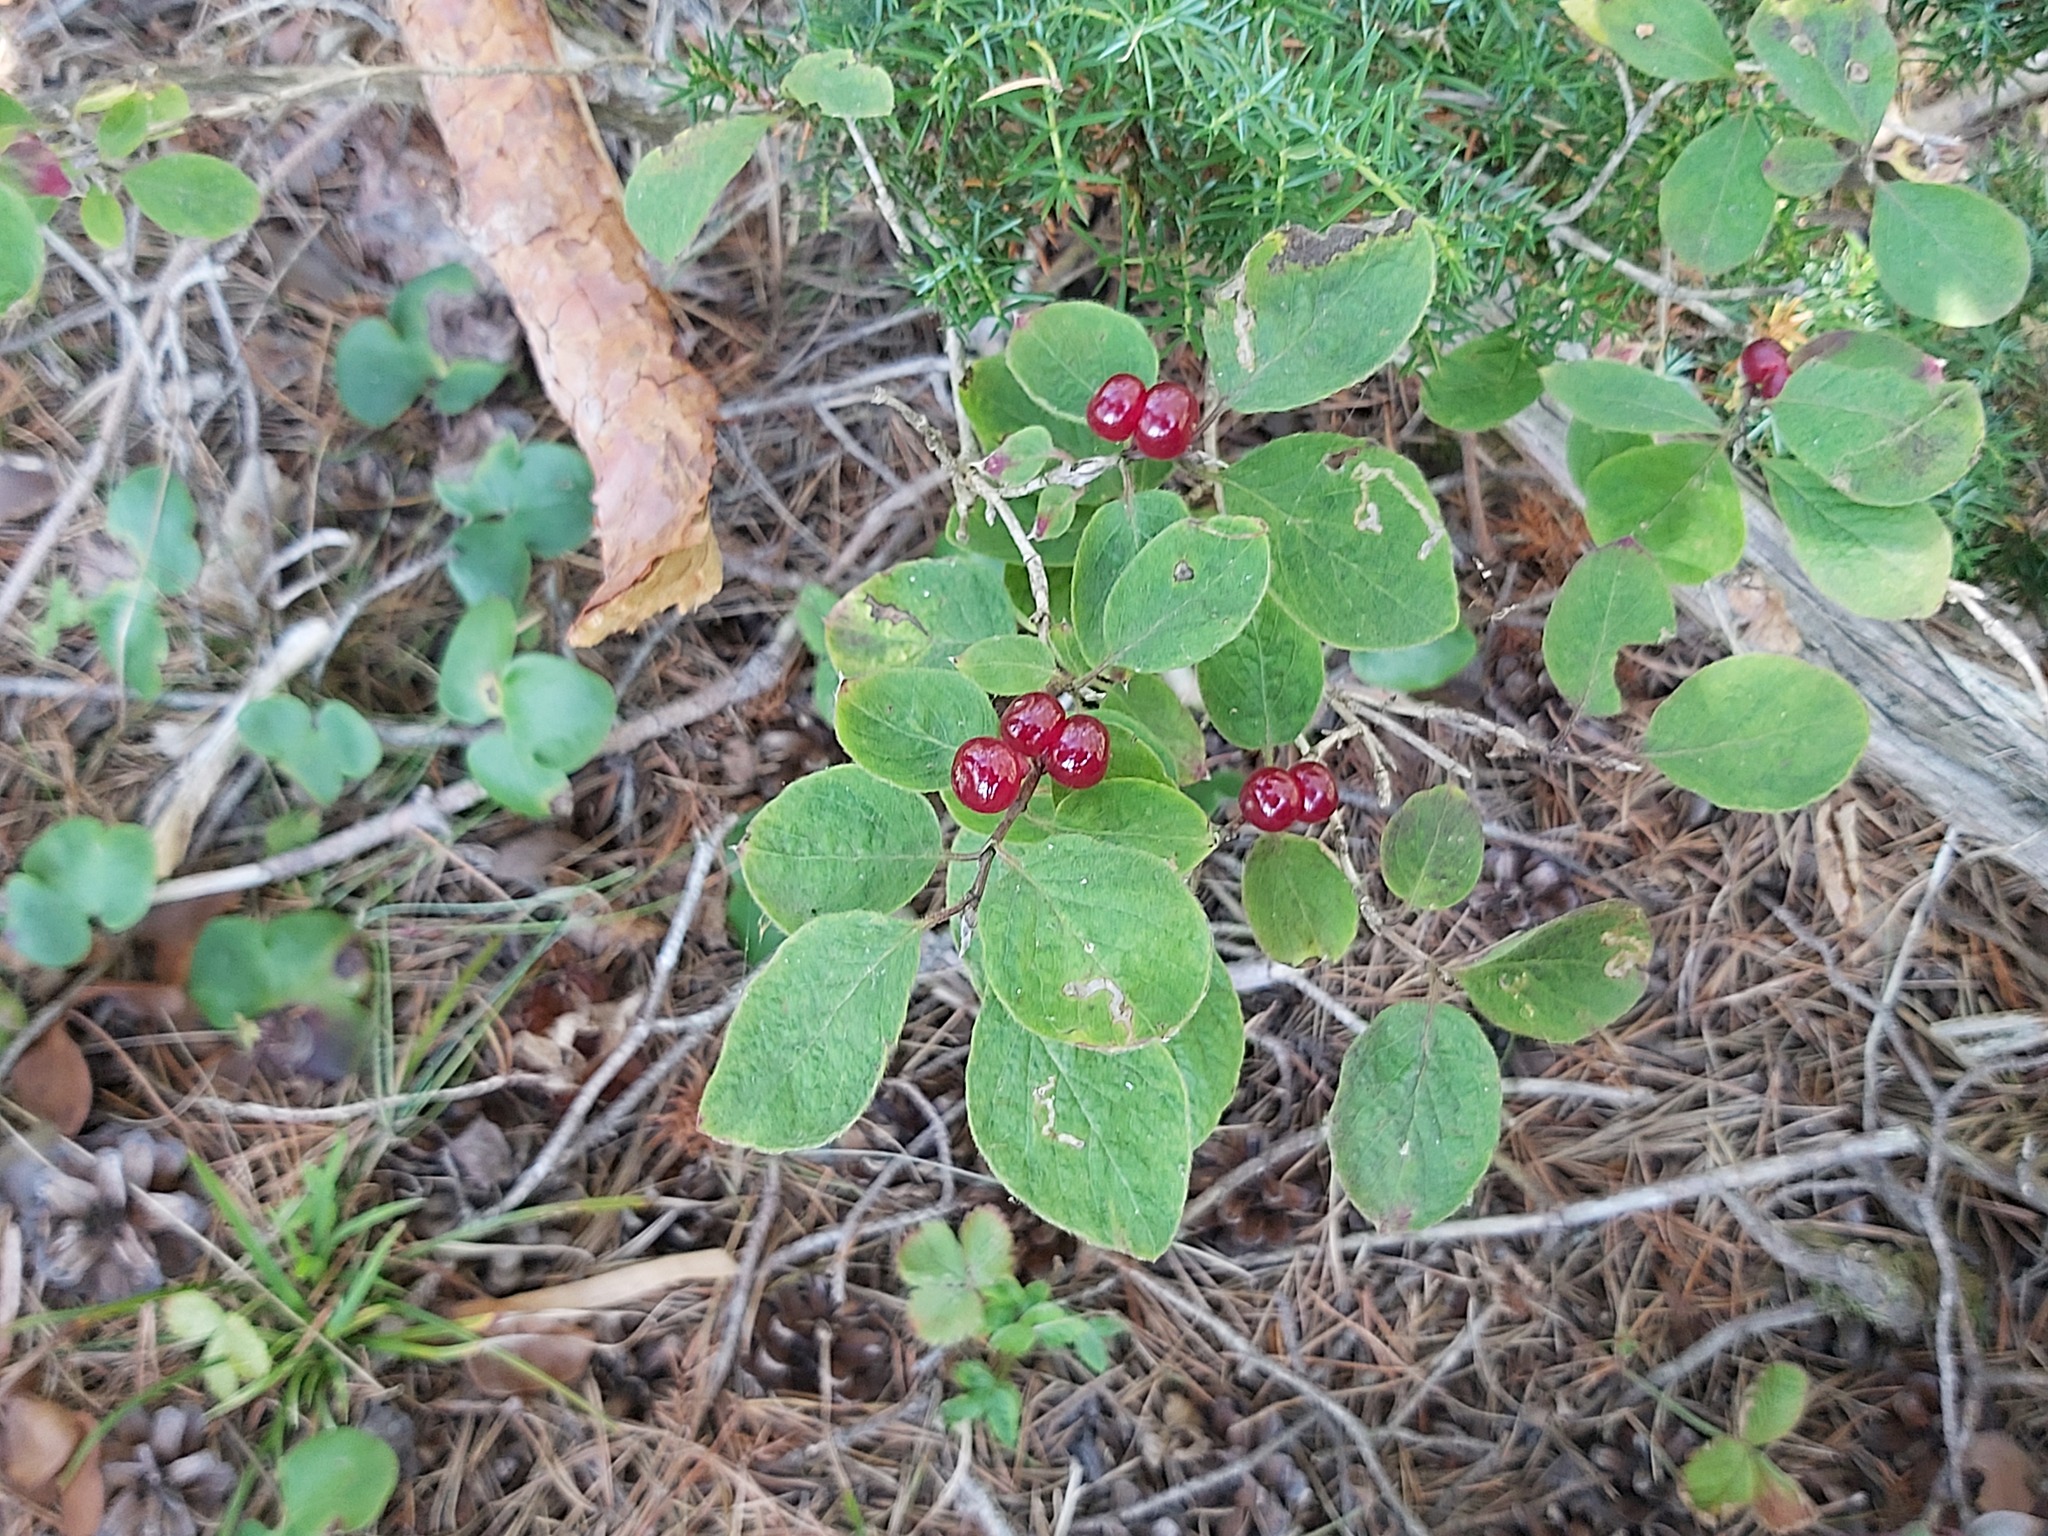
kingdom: Plantae
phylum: Tracheophyta
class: Magnoliopsida
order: Dipsacales
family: Caprifoliaceae
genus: Lonicera
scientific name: Lonicera xylosteum
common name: Fly honeysuckle
